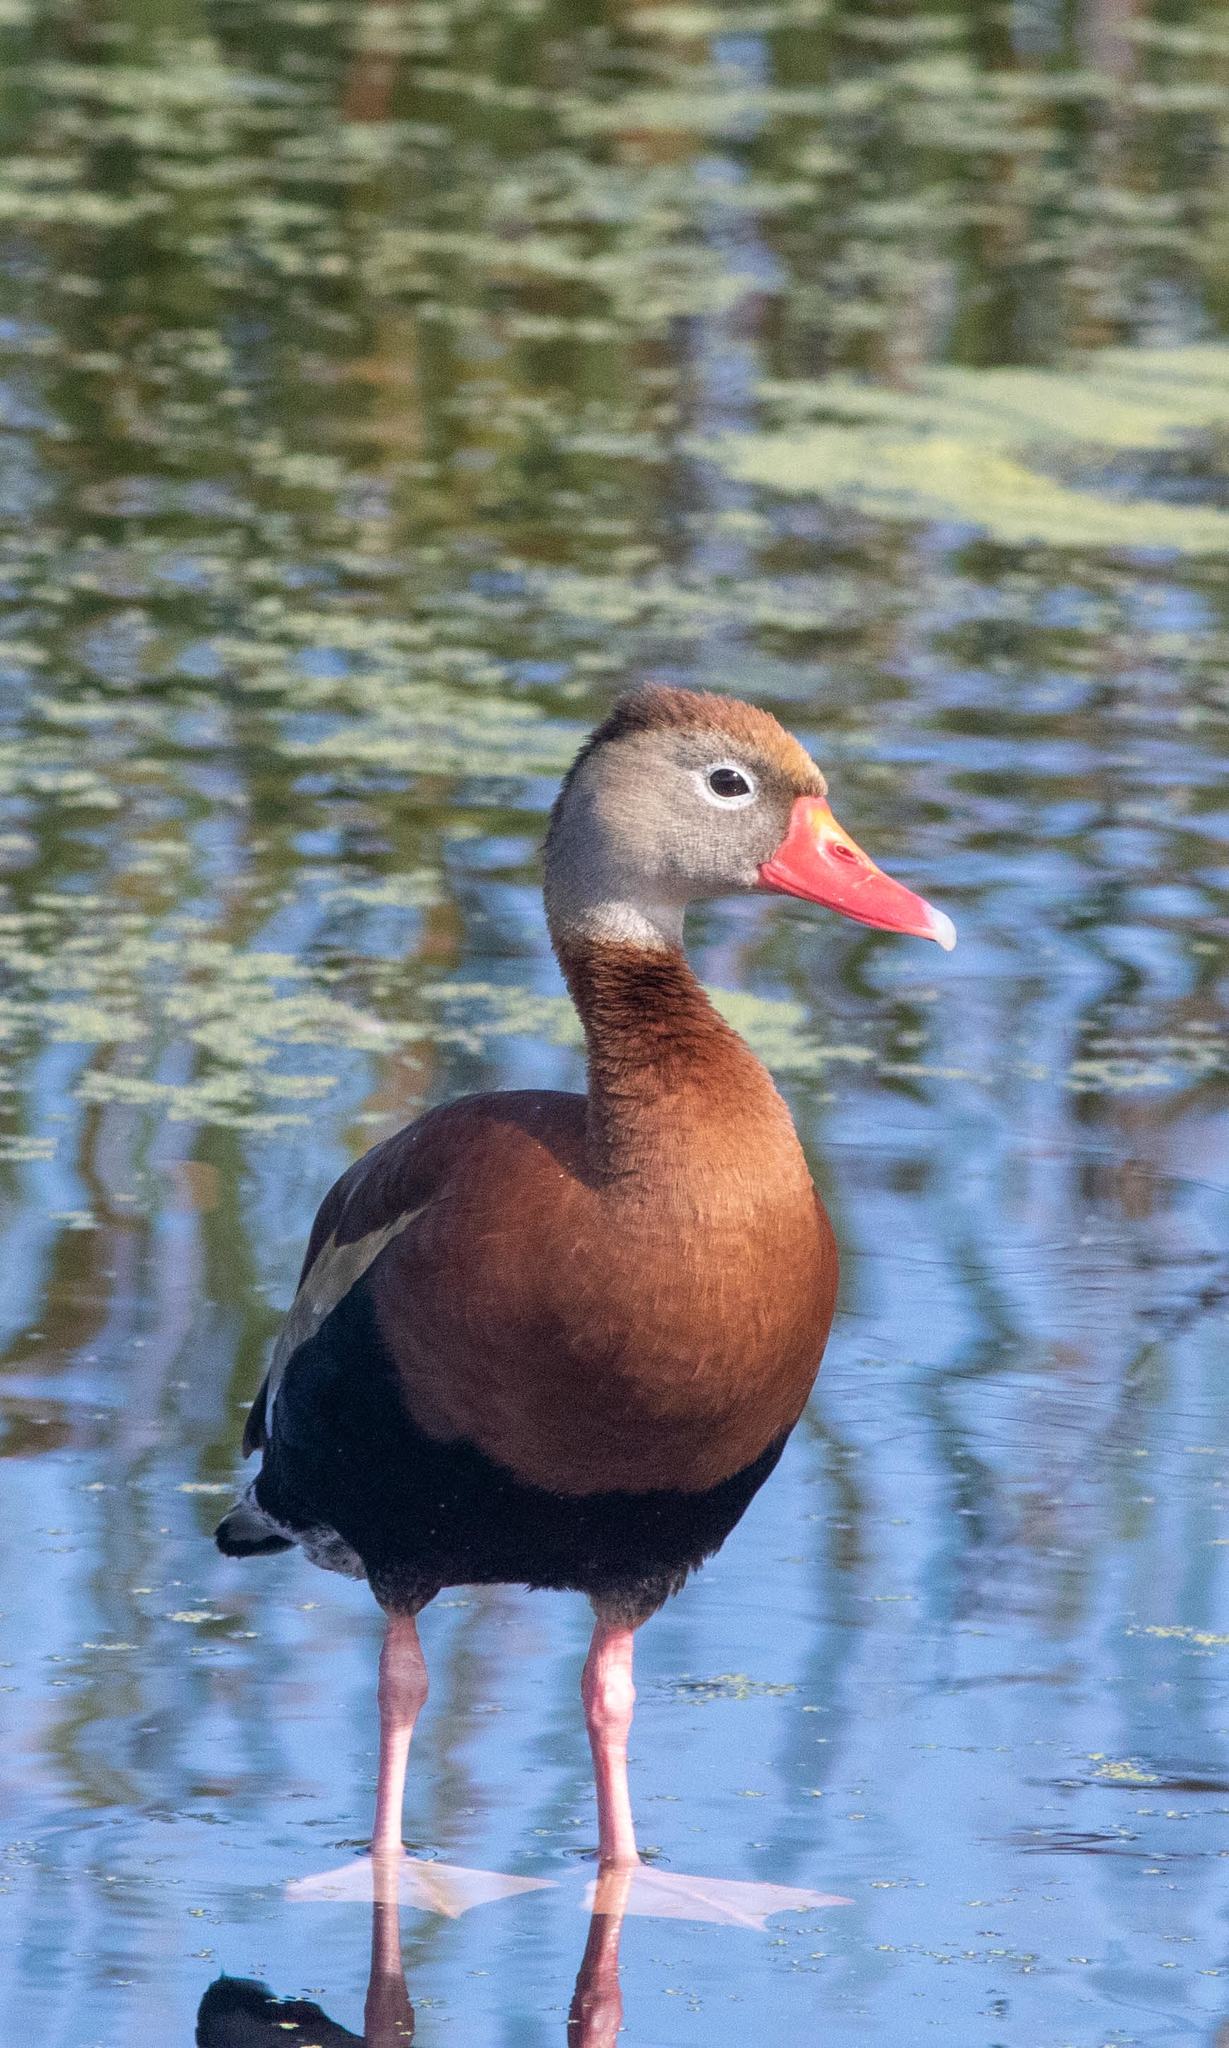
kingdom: Animalia
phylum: Chordata
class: Aves
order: Anseriformes
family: Anatidae
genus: Dendrocygna
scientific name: Dendrocygna autumnalis
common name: Black-bellied whistling duck
